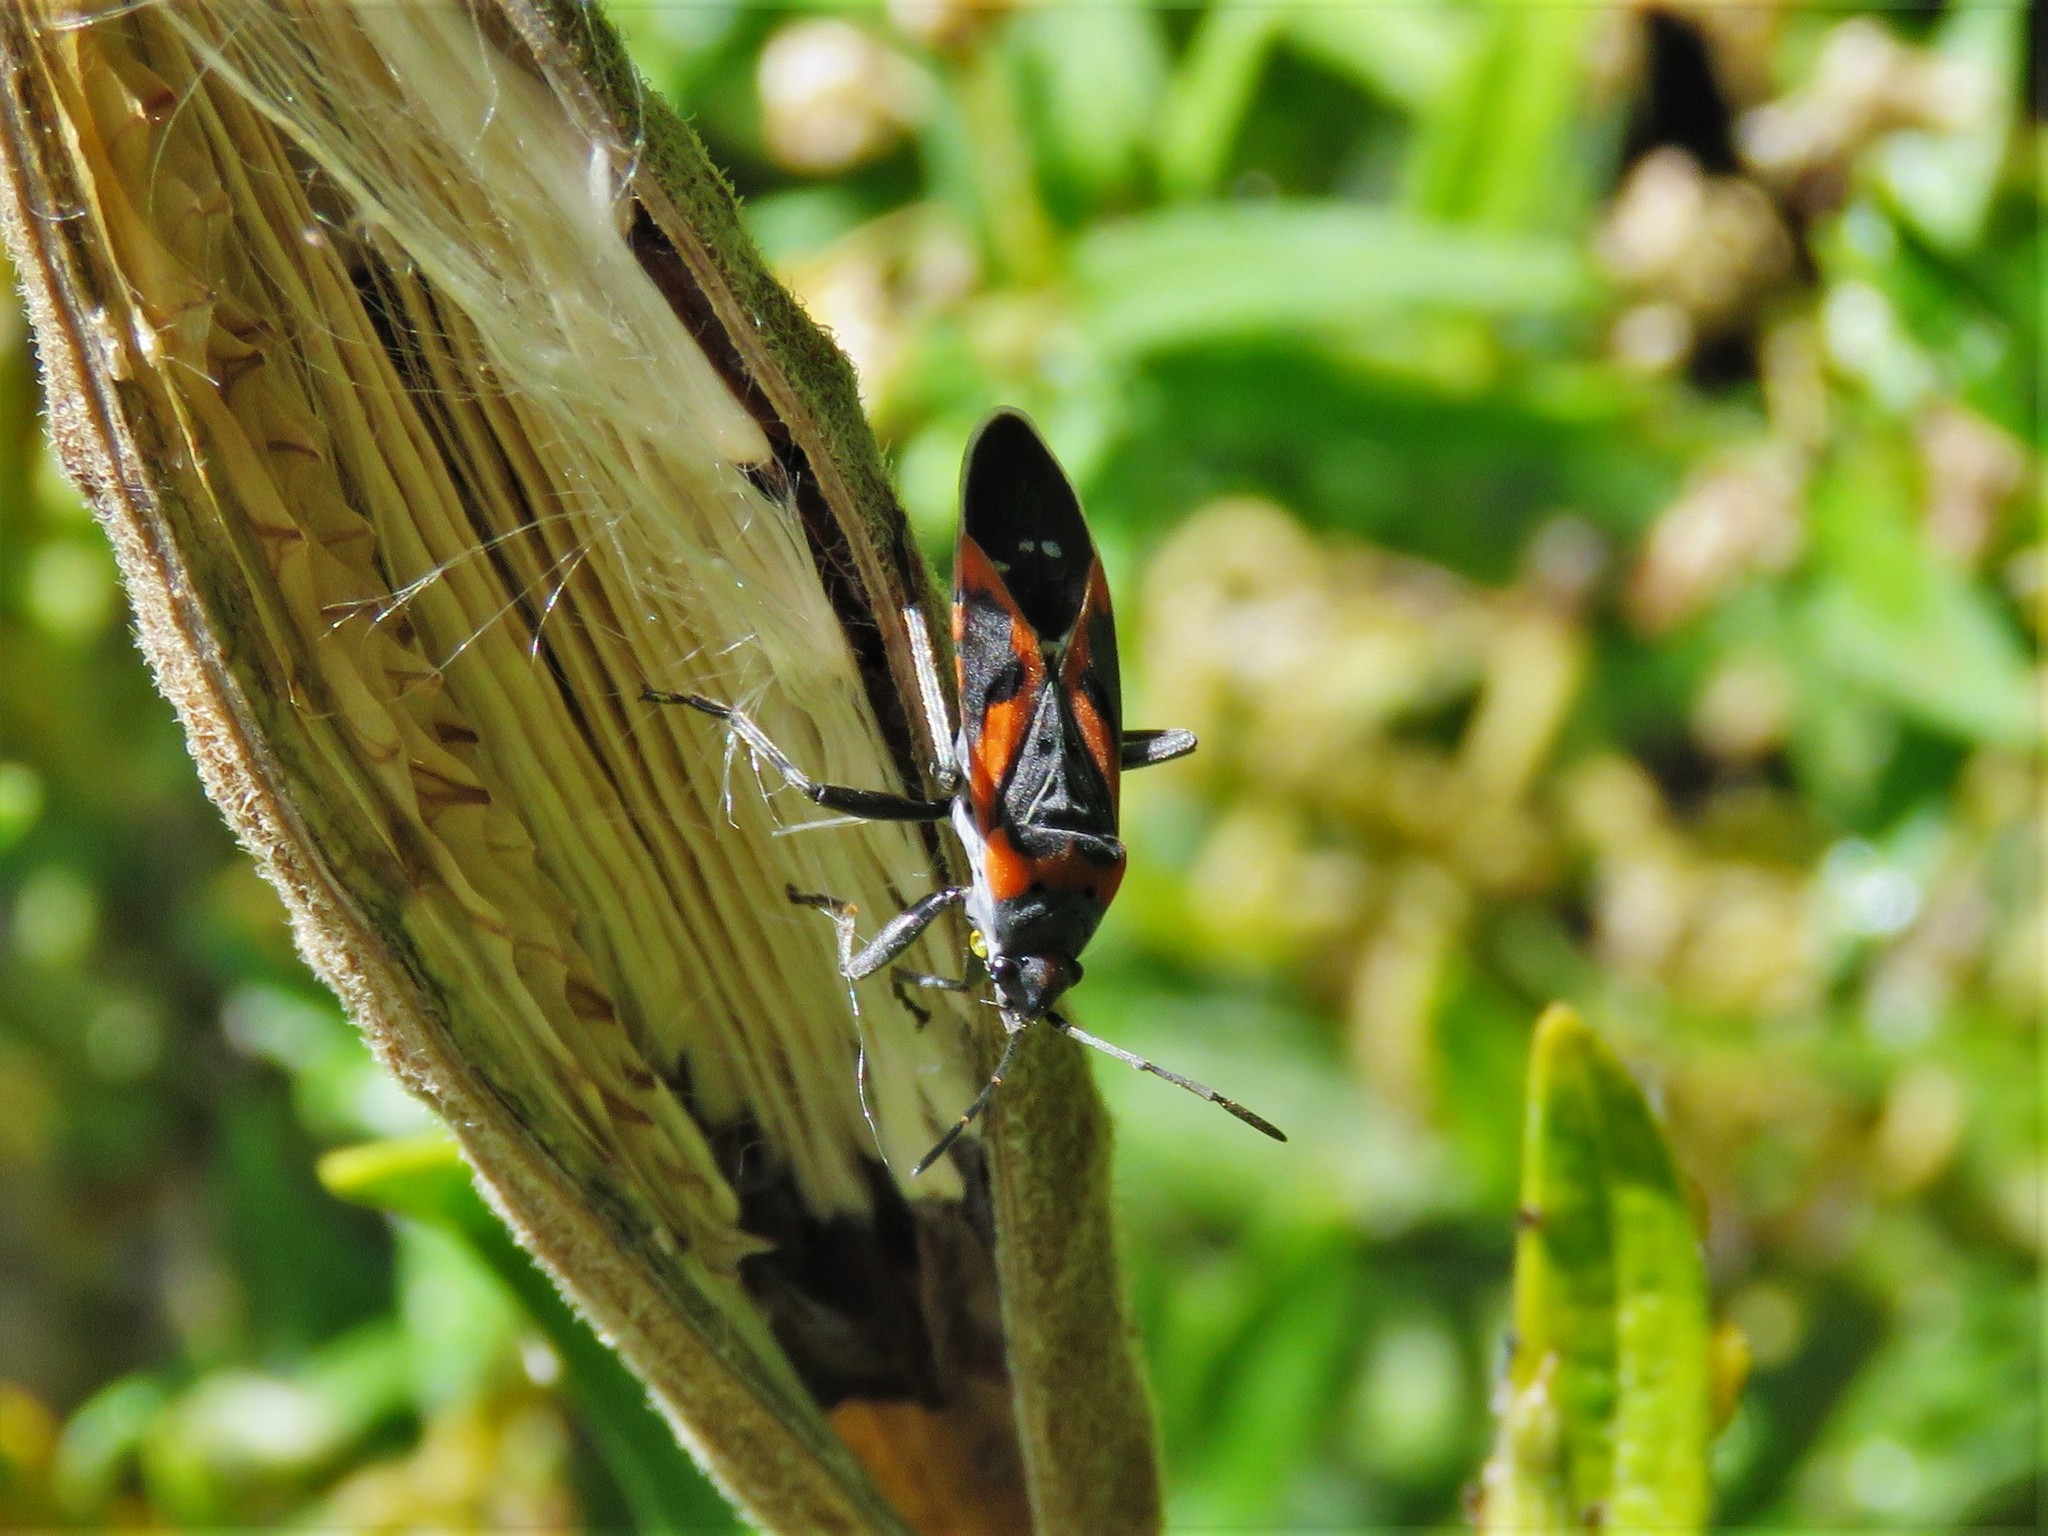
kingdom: Animalia
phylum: Arthropoda
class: Insecta
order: Hemiptera
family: Lygaeidae
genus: Lygaeus
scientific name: Lygaeus kalmii
